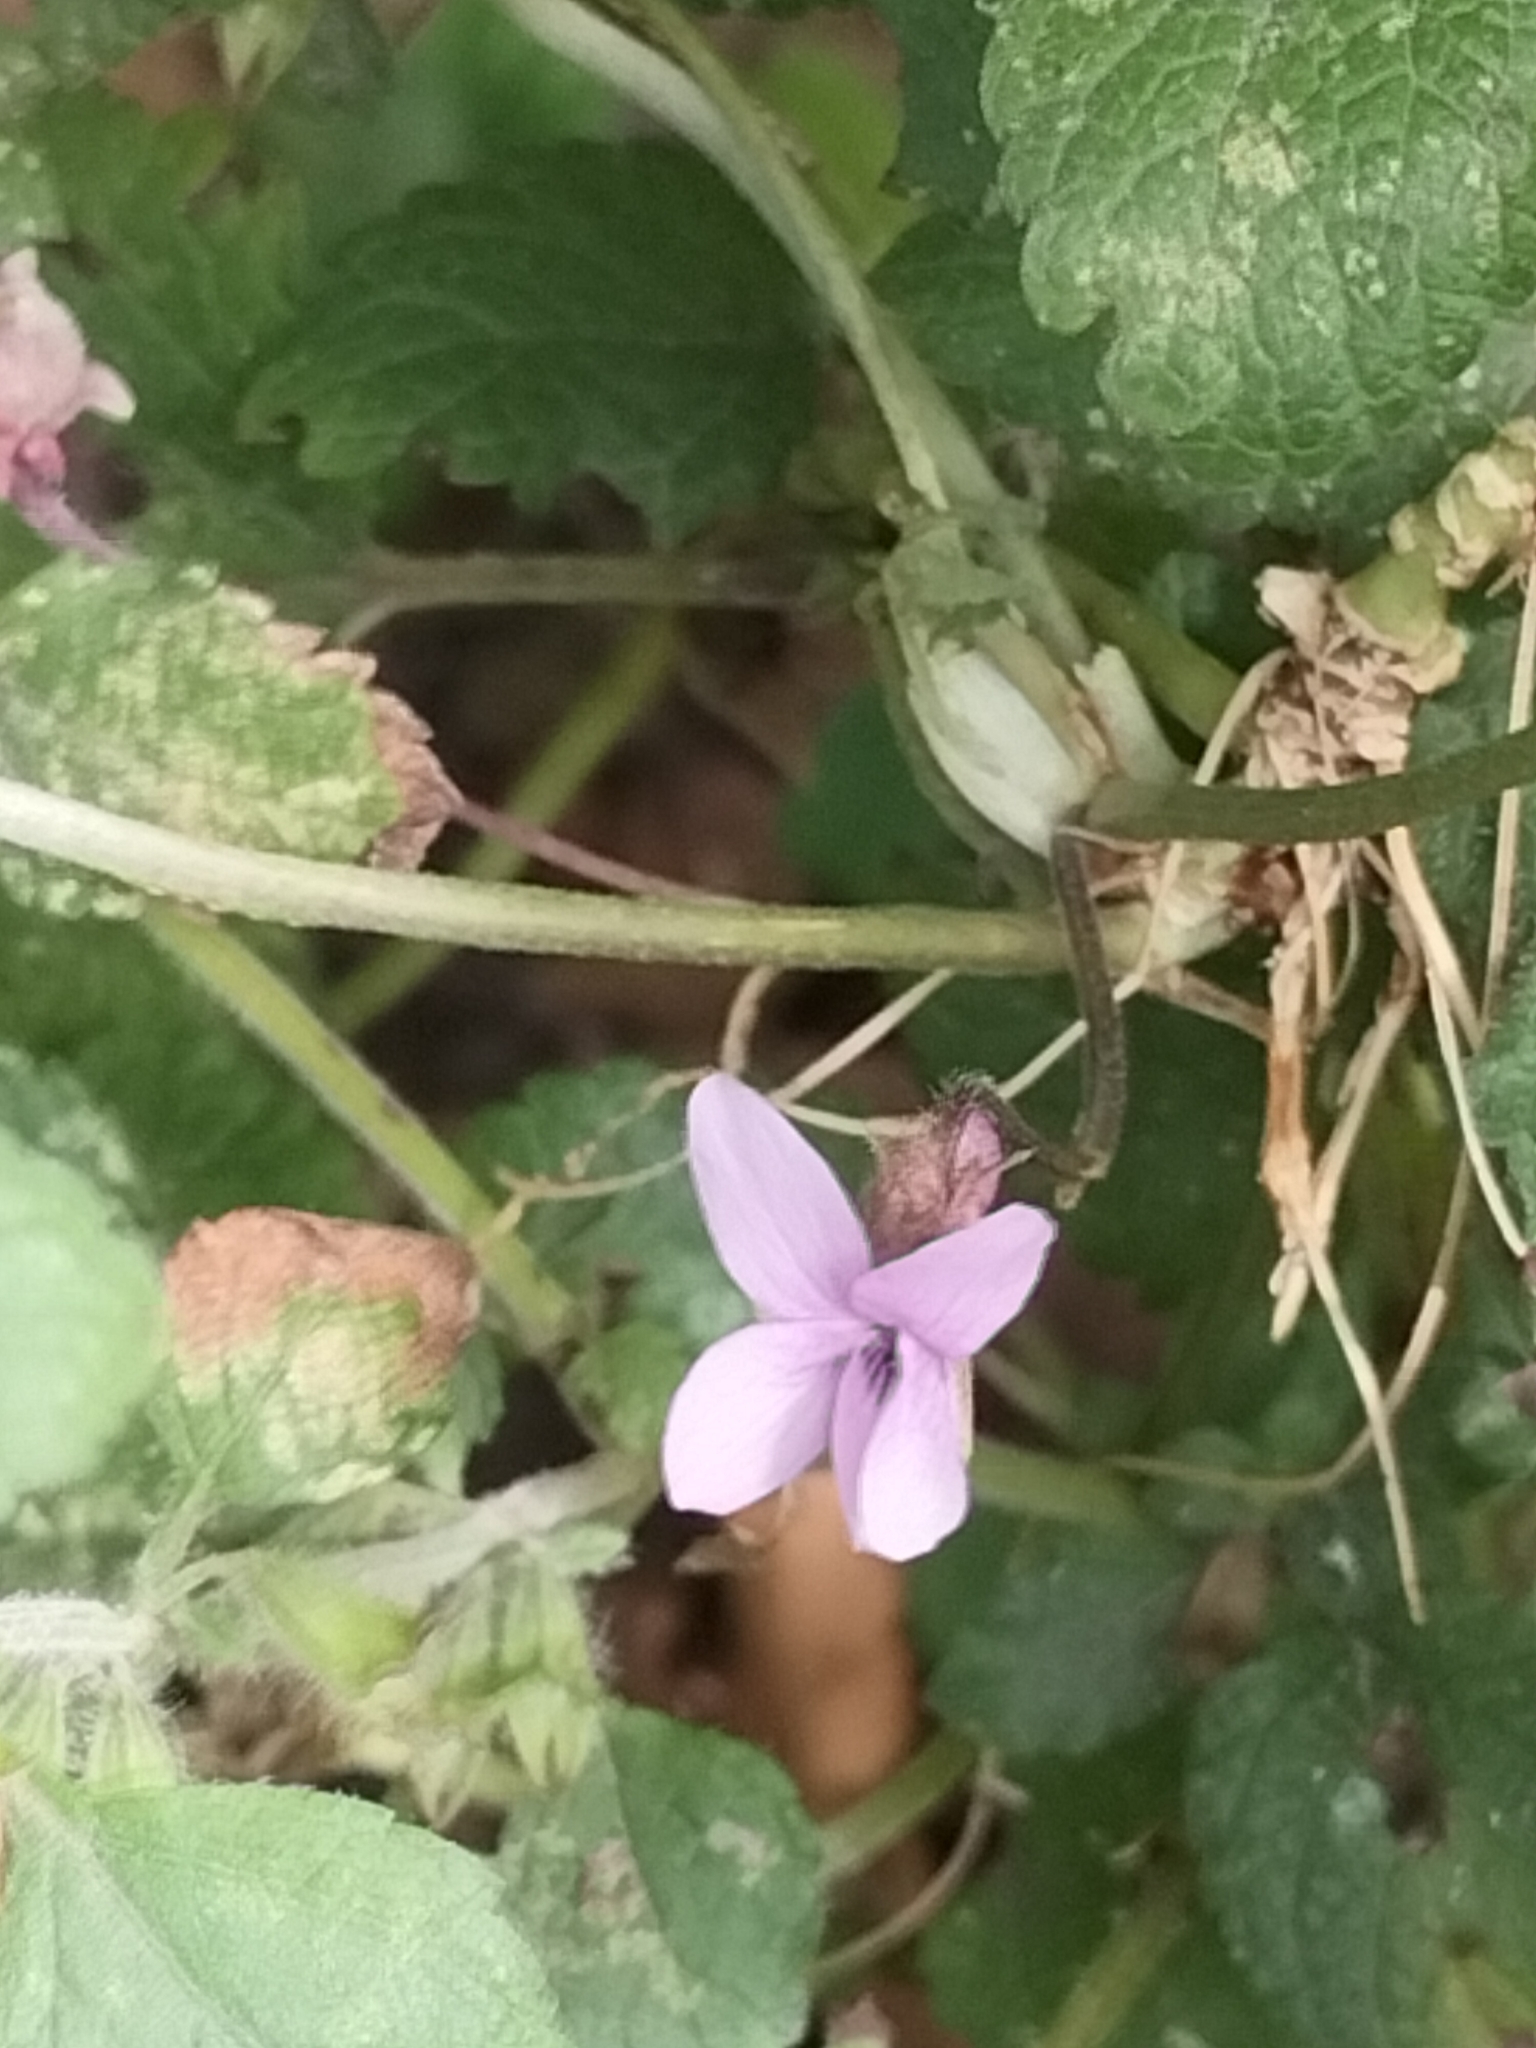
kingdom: Plantae
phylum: Tracheophyta
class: Magnoliopsida
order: Malpighiales
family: Violaceae
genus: Viola
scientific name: Viola odorata
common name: Sweet violet
